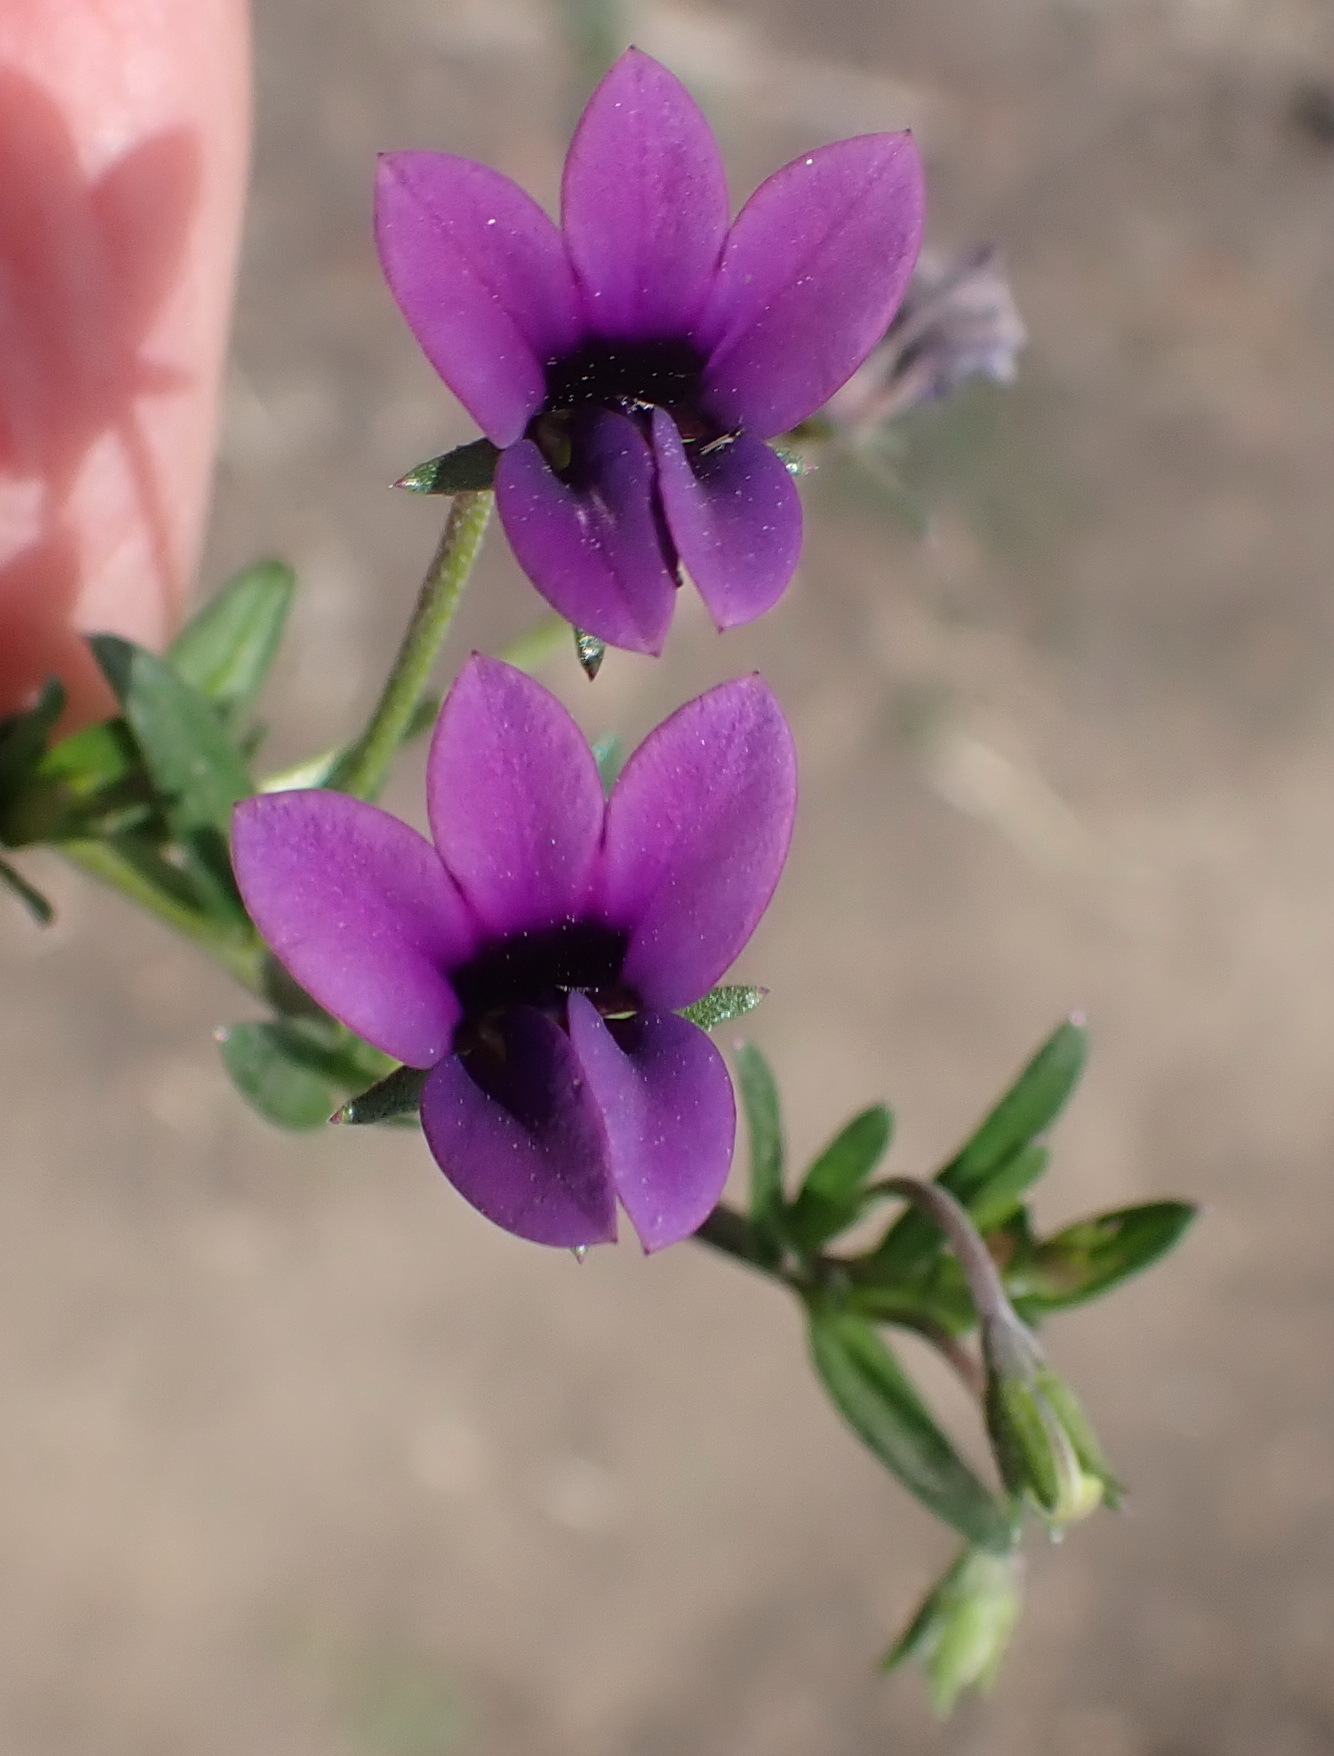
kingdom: Plantae
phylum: Tracheophyta
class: Magnoliopsida
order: Asterales
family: Campanulaceae
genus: Monopsis
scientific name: Monopsis unidentata
